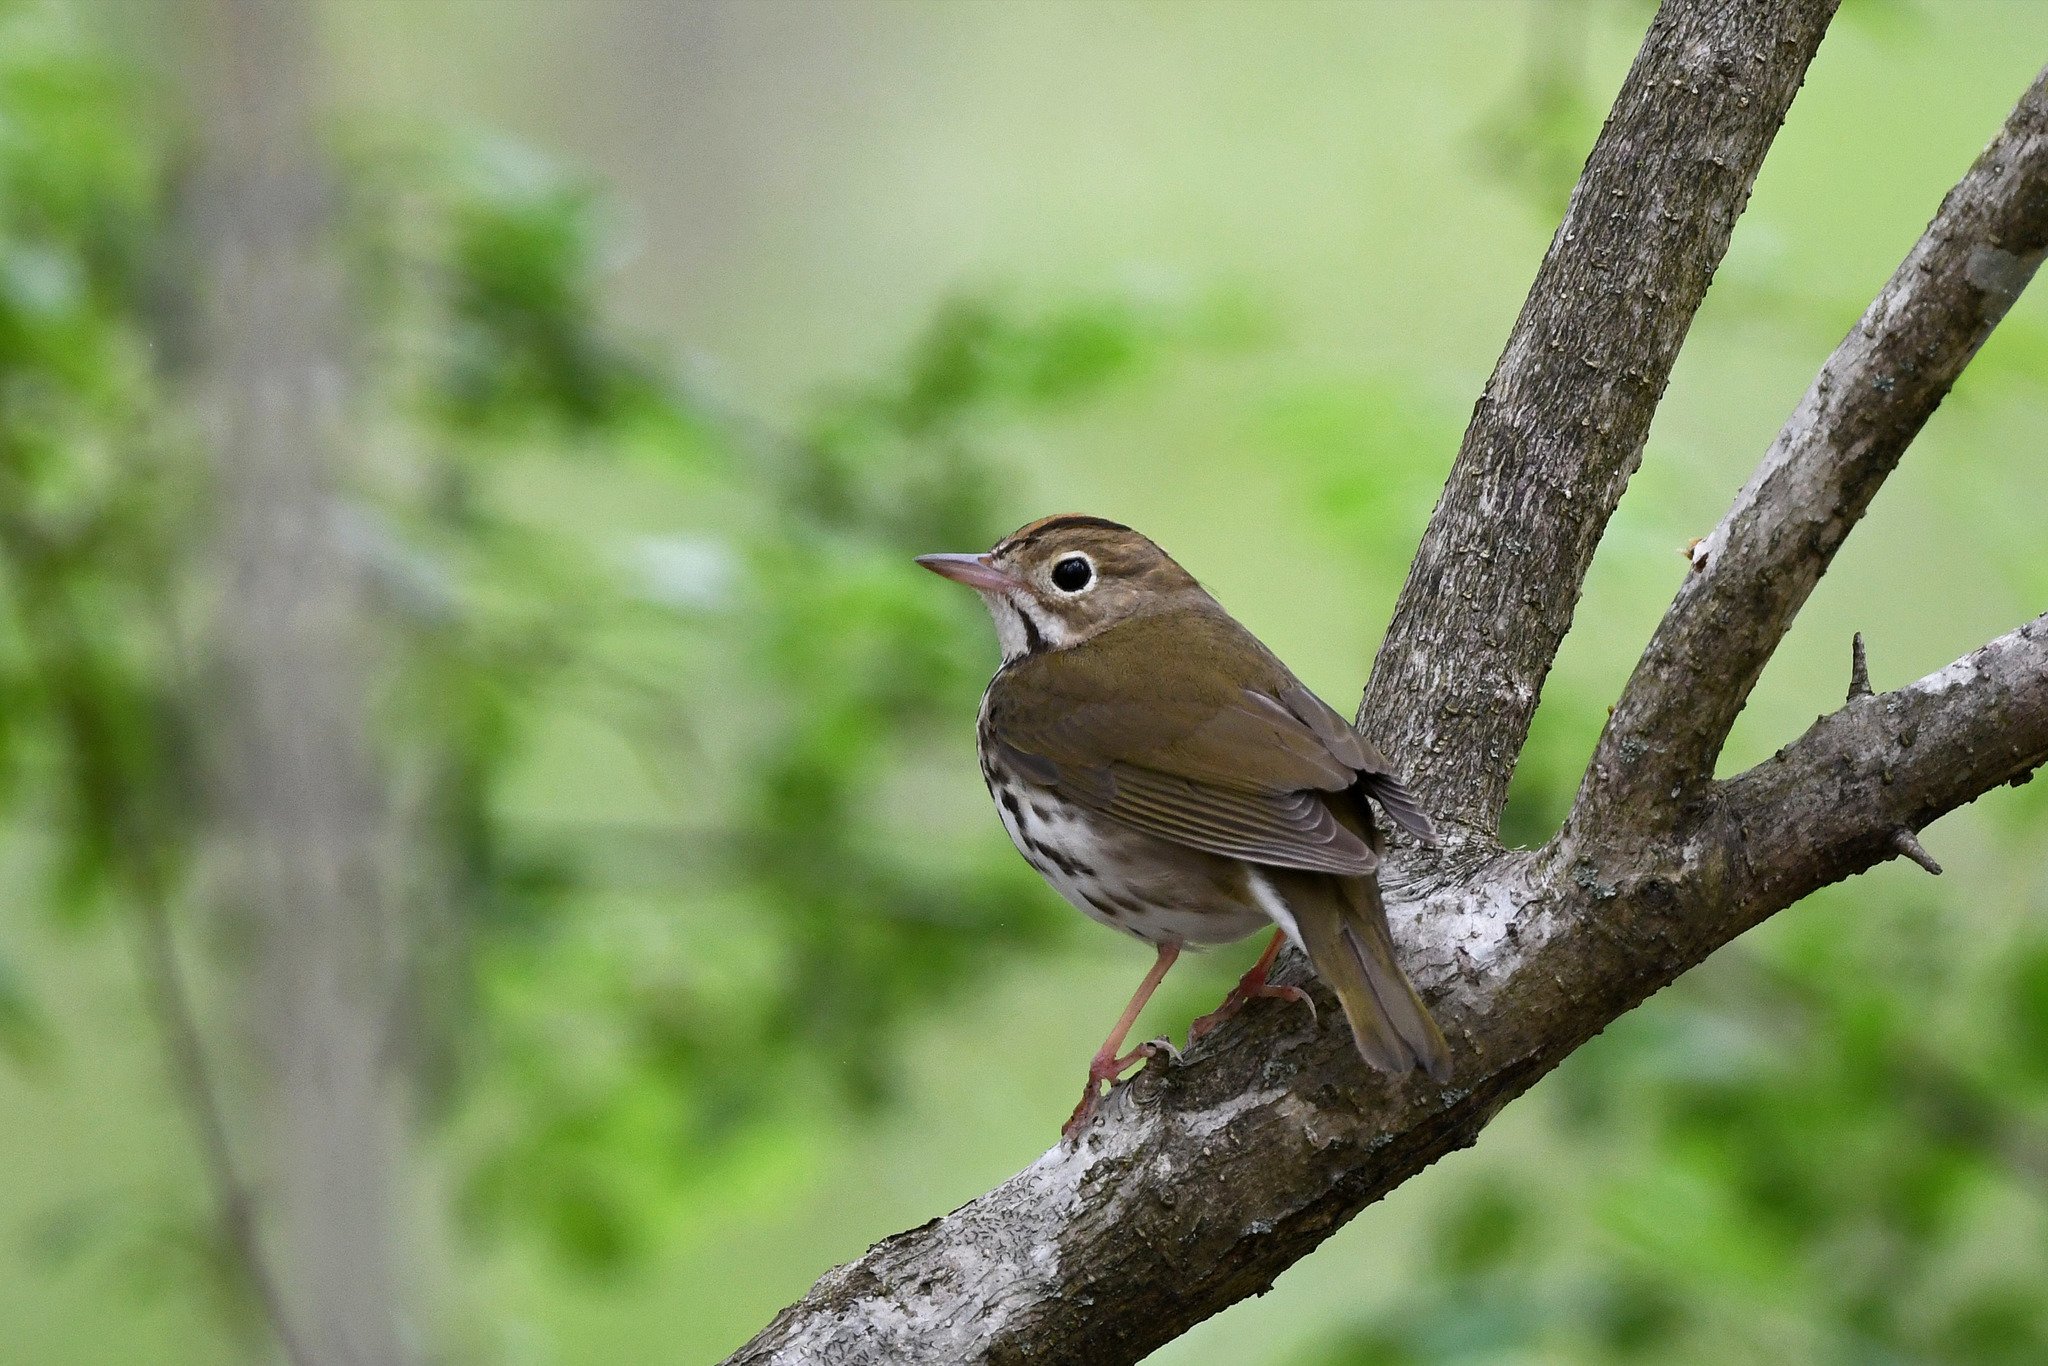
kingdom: Animalia
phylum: Chordata
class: Aves
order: Passeriformes
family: Parulidae
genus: Seiurus
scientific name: Seiurus aurocapilla
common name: Ovenbird
